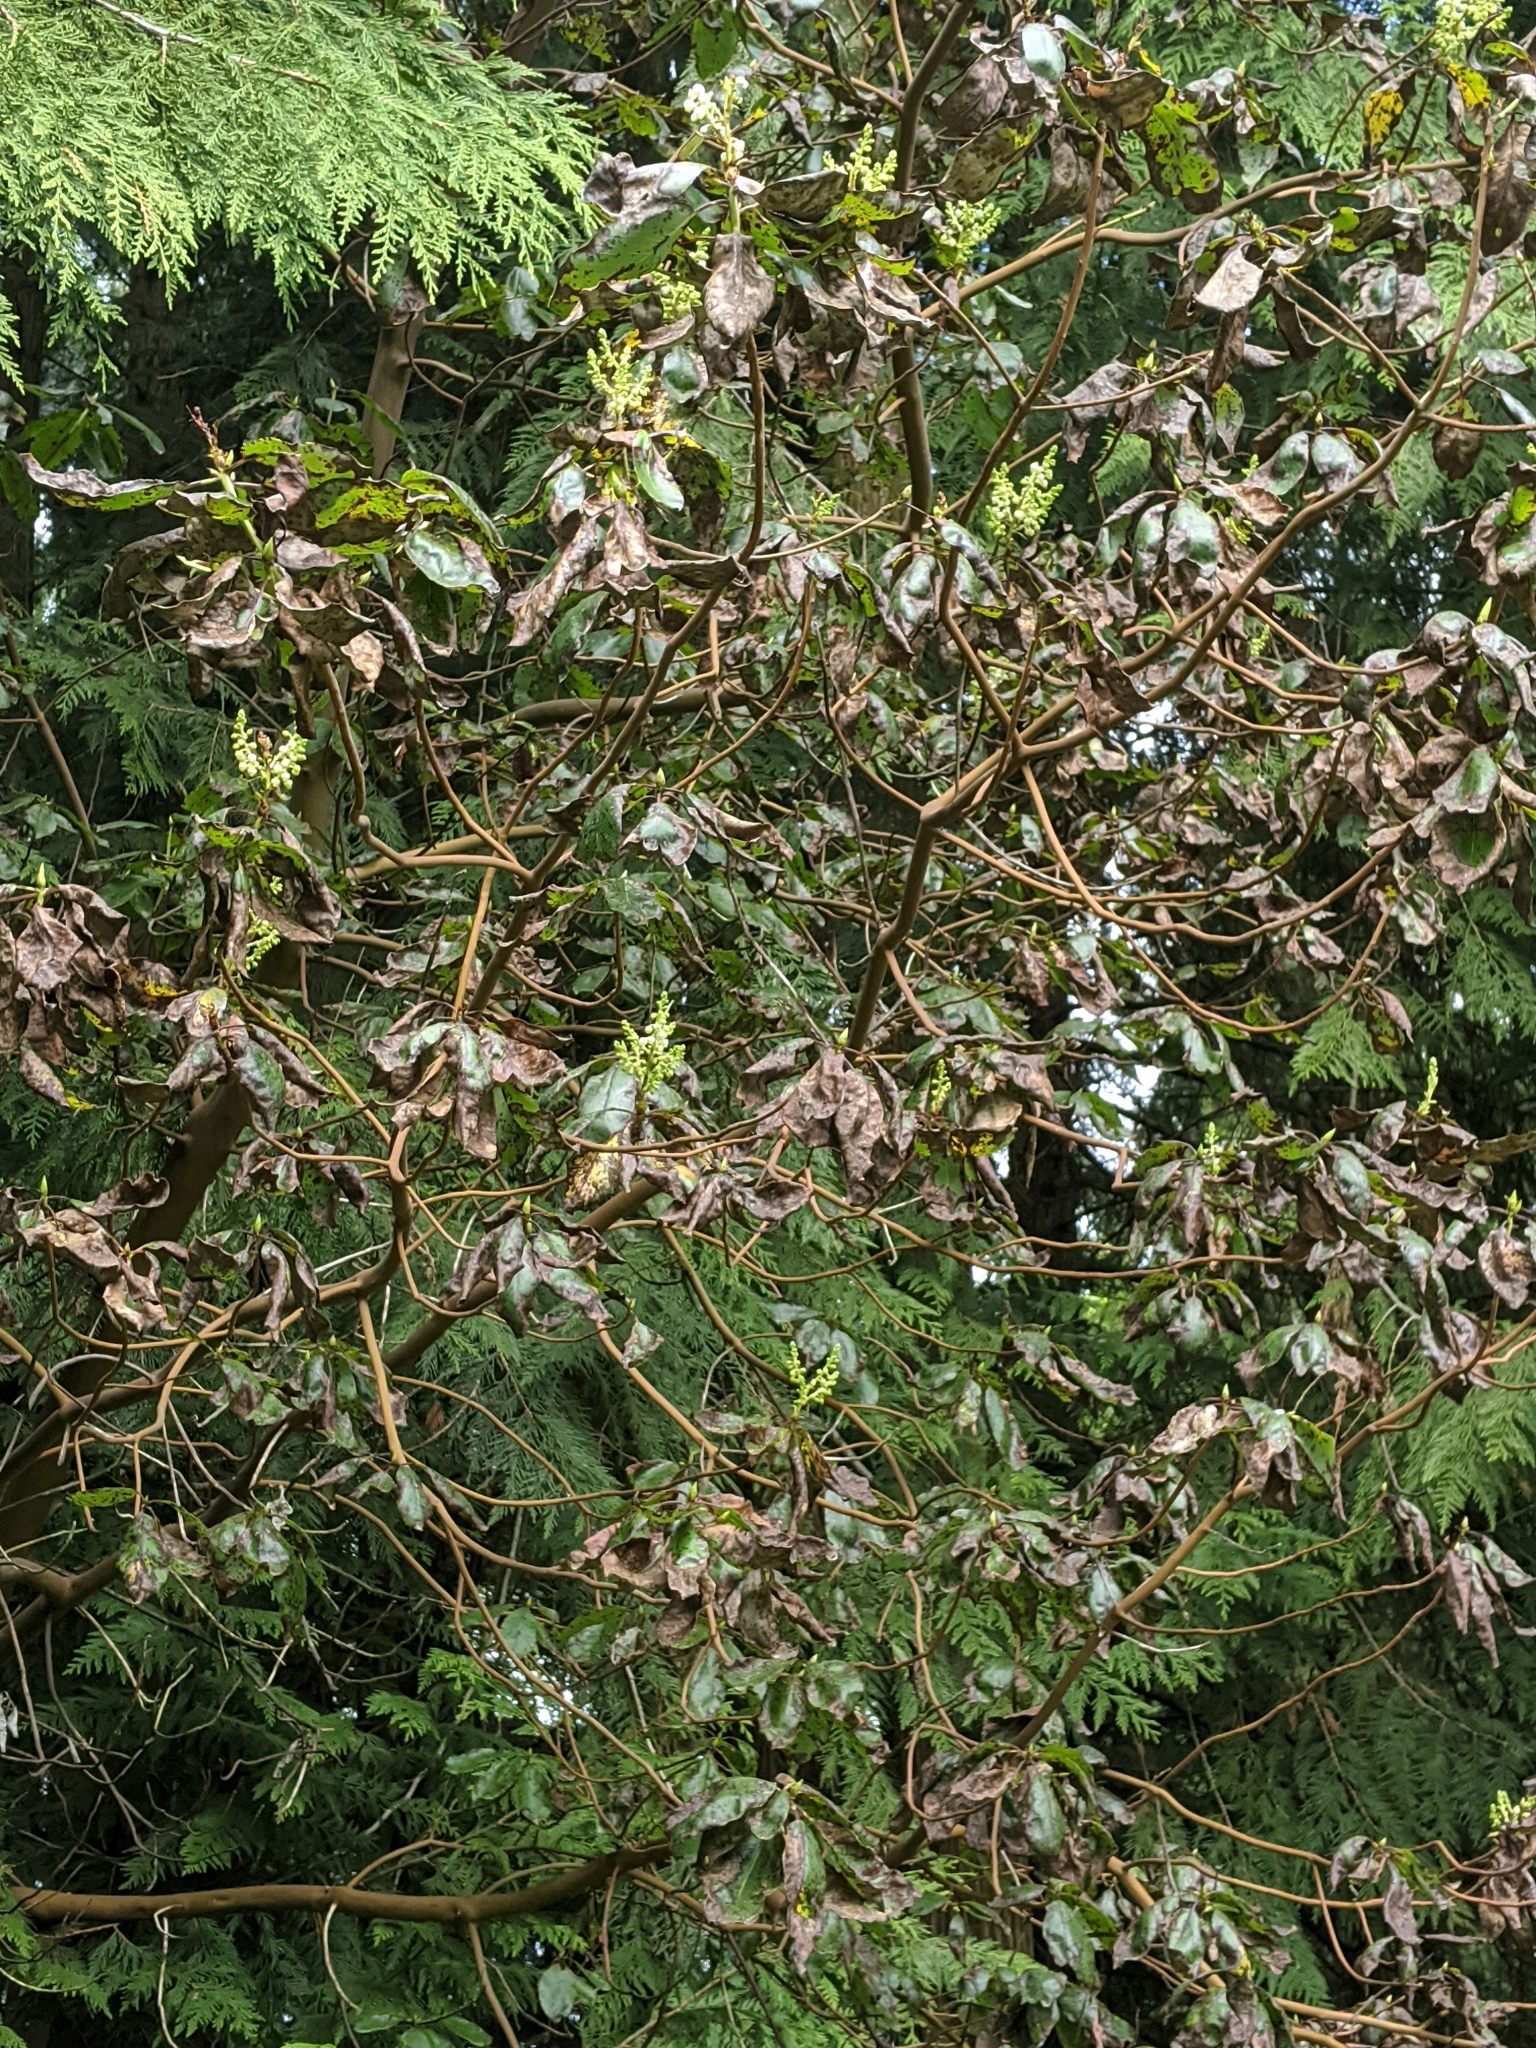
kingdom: Plantae
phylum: Tracheophyta
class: Magnoliopsida
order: Ericales
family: Ericaceae
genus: Arbutus
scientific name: Arbutus menziesii
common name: Pacific madrone
